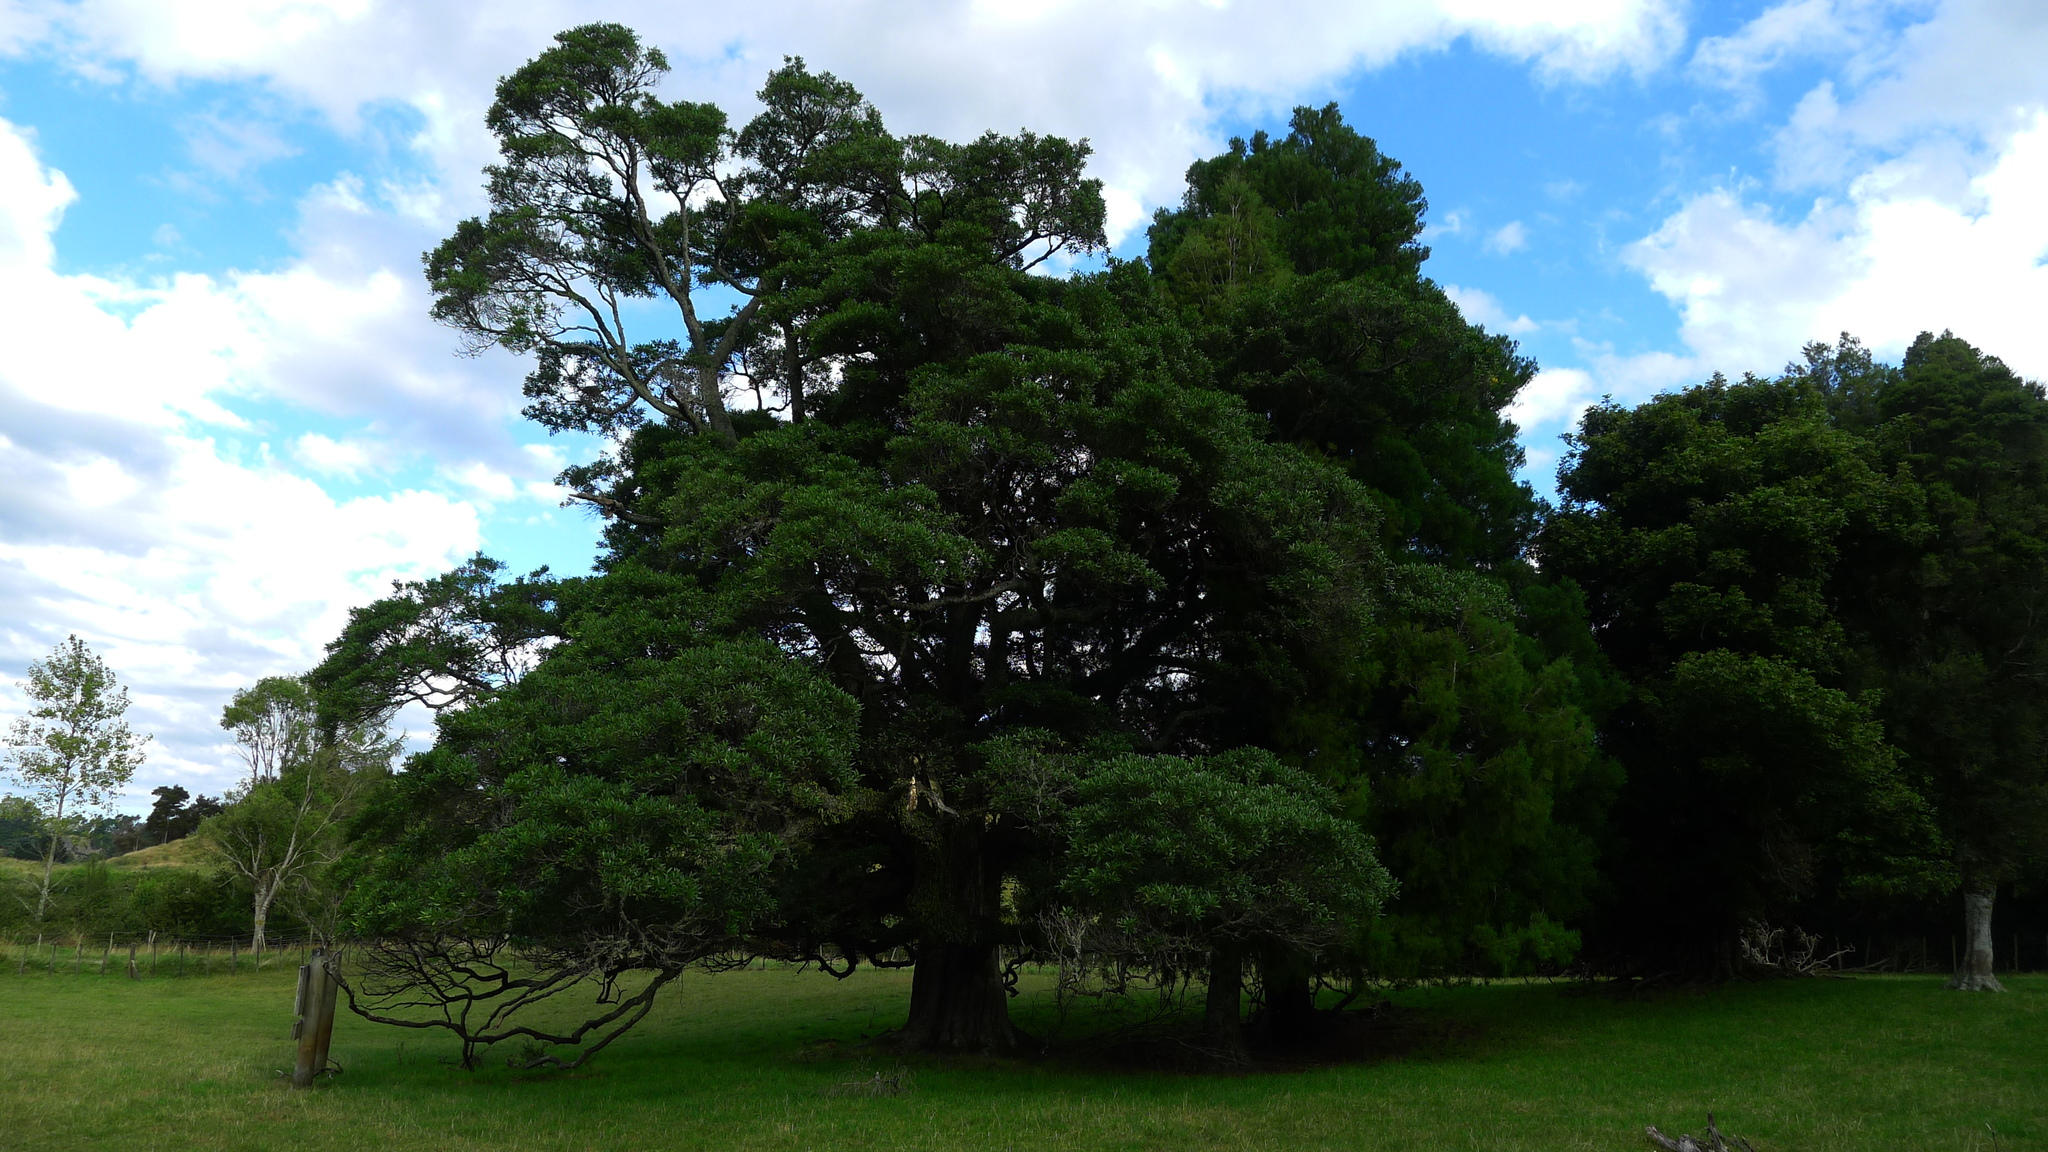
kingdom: Plantae
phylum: Tracheophyta
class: Magnoliopsida
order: Oxalidales
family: Elaeocarpaceae
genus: Elaeocarpus
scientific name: Elaeocarpus hookerianus
